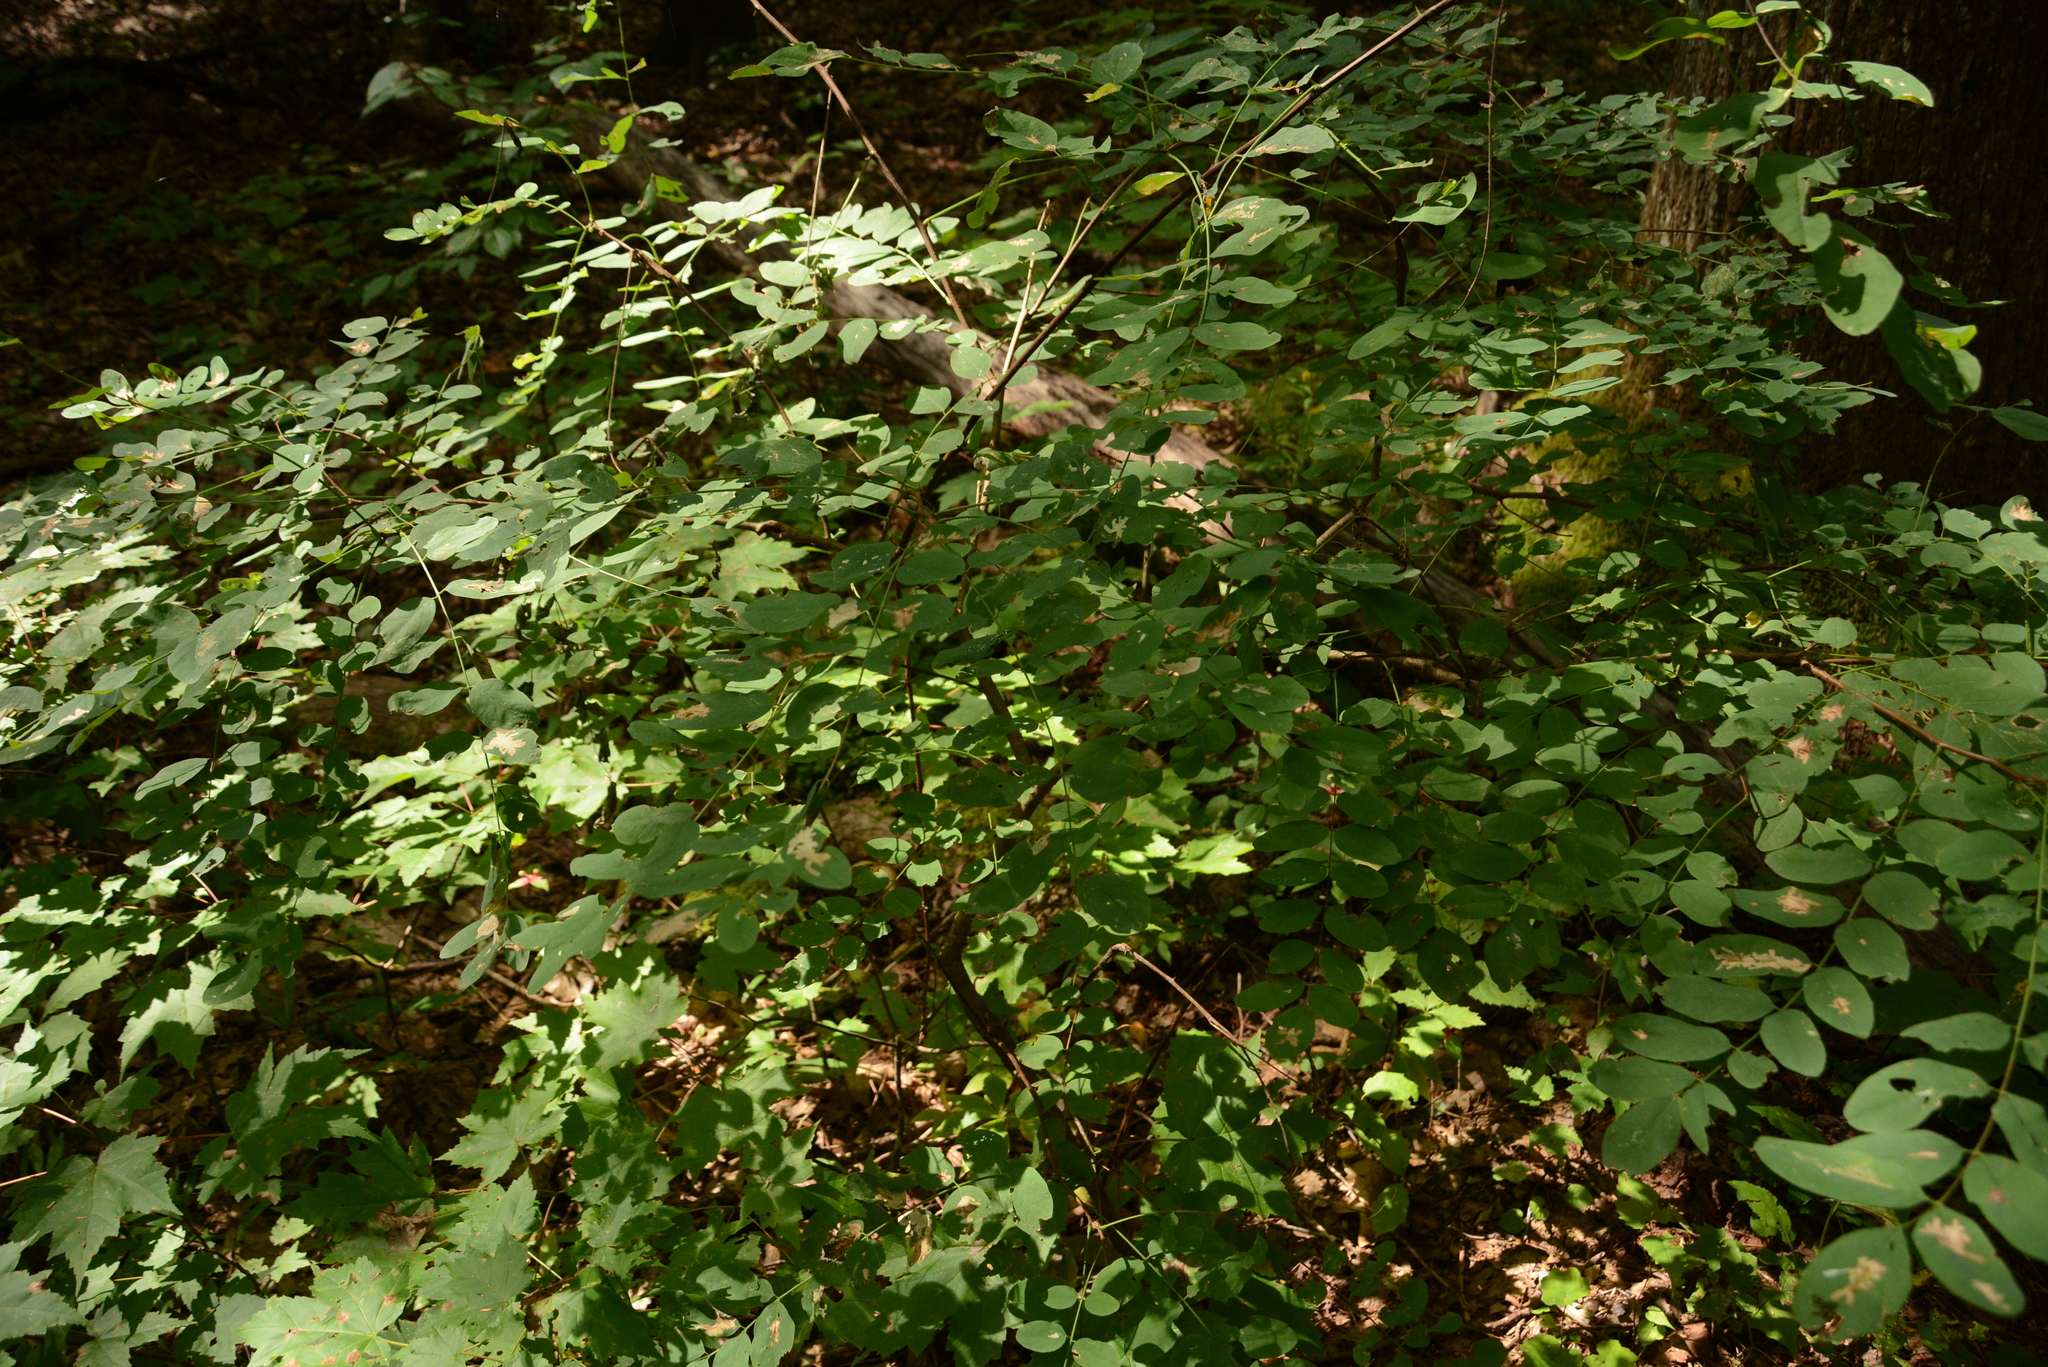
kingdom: Plantae
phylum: Tracheophyta
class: Magnoliopsida
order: Fabales
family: Fabaceae
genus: Robinia
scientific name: Robinia pseudoacacia
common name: Black locust
